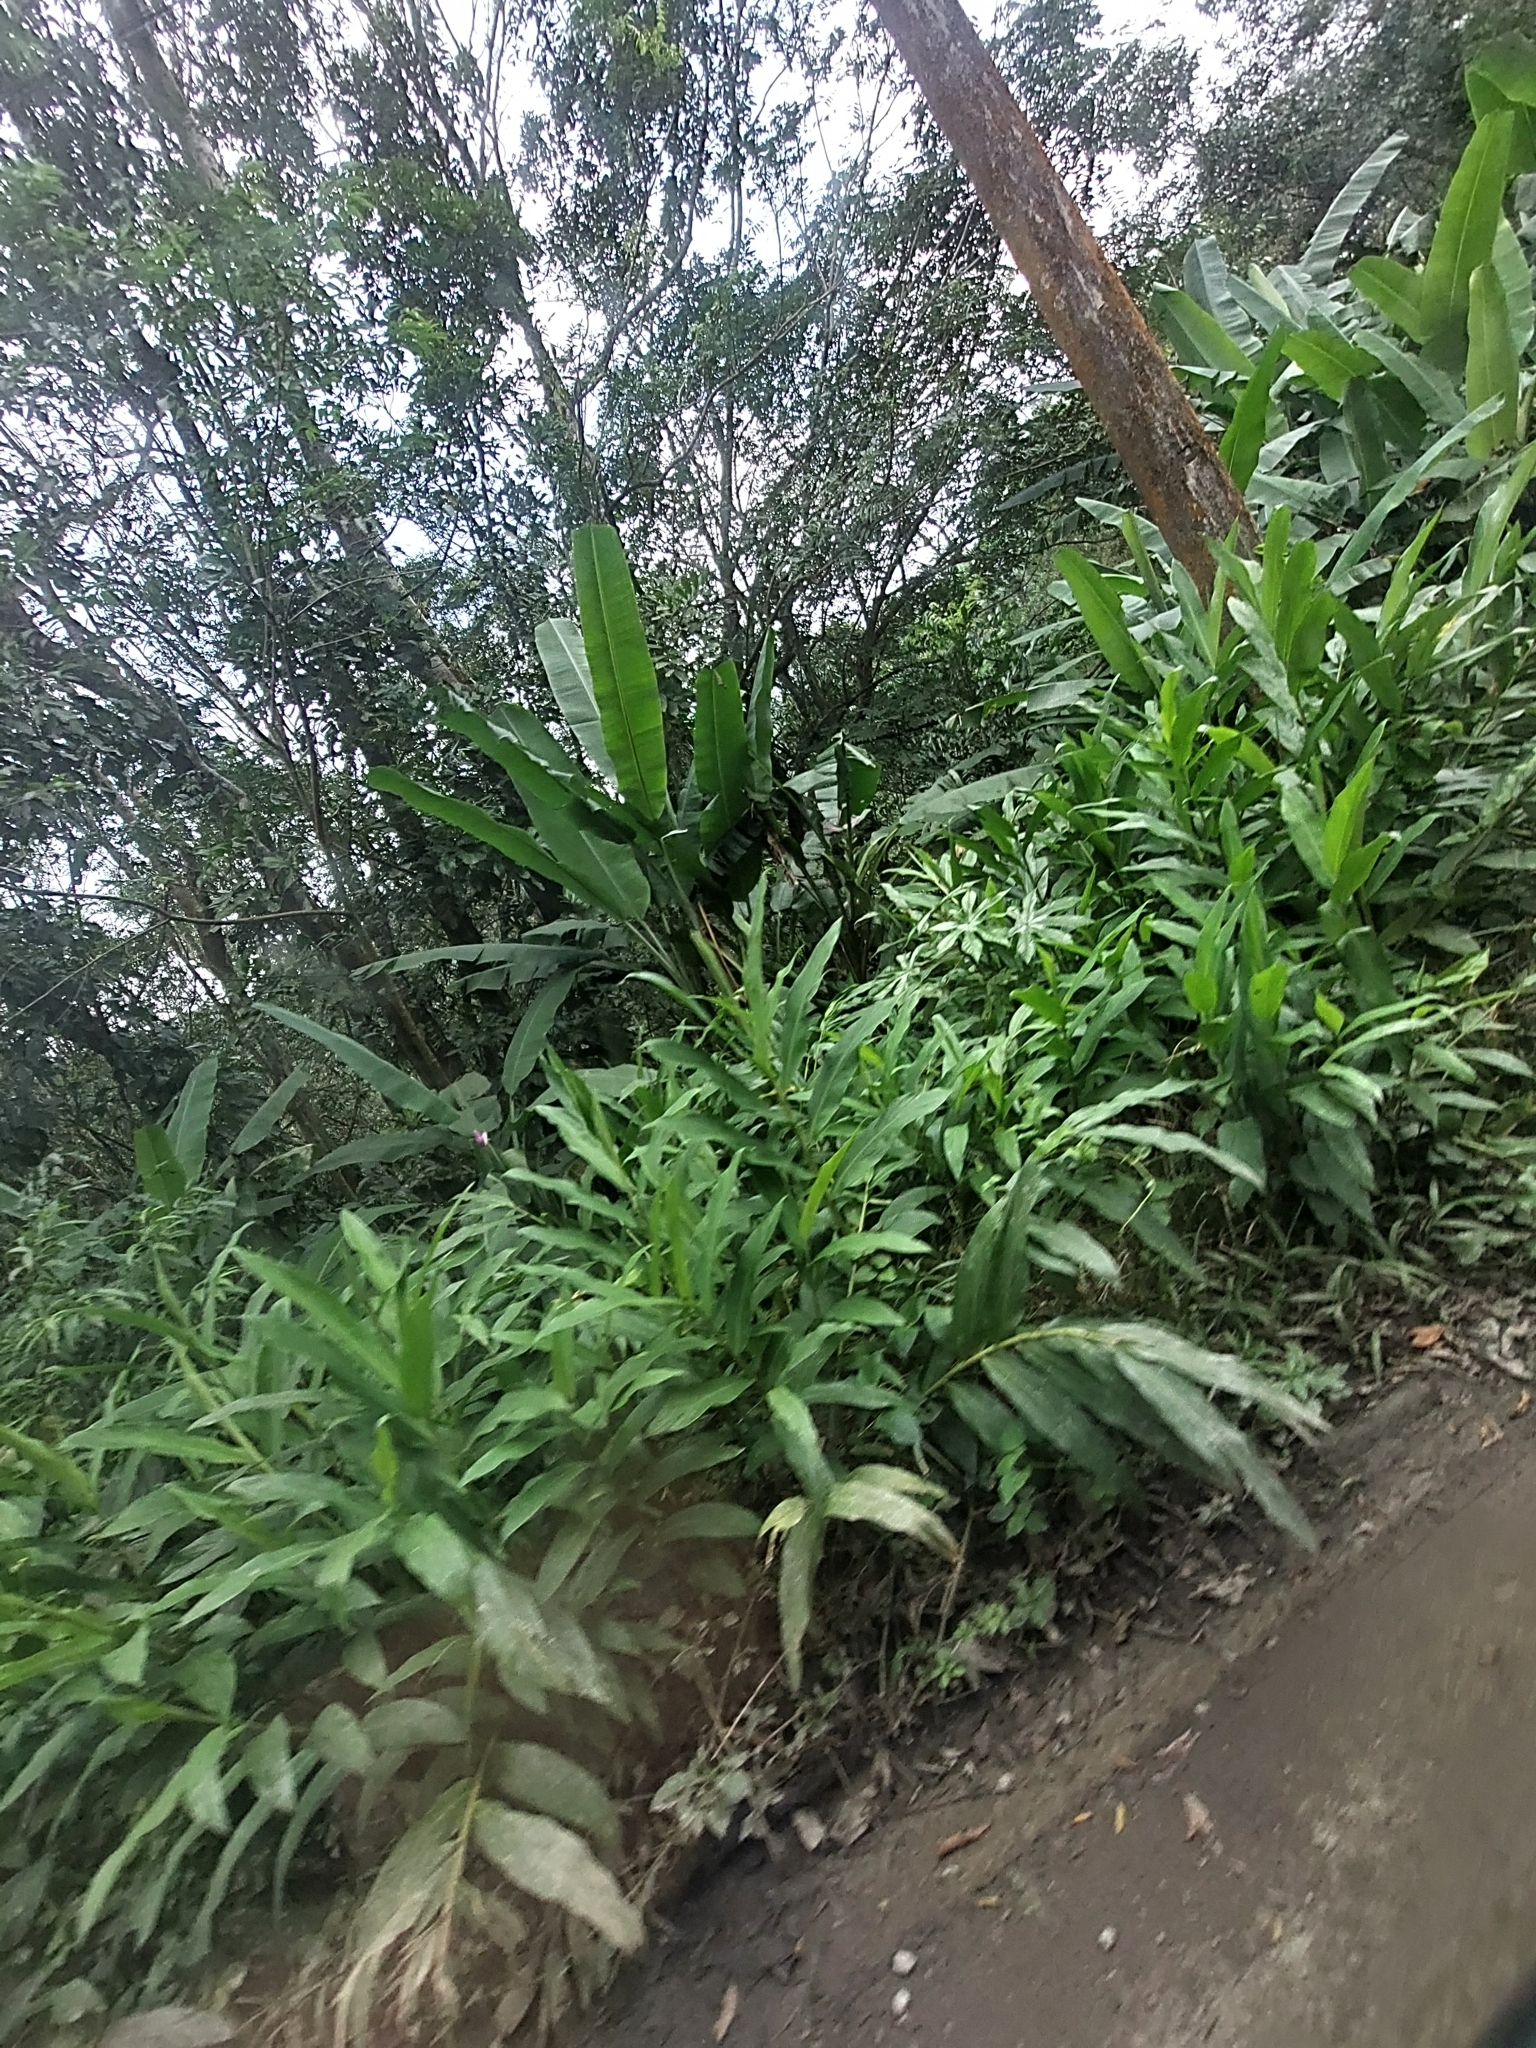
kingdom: Plantae
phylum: Tracheophyta
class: Liliopsida
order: Zingiberales
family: Zingiberaceae
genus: Hedychium
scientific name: Hedychium coronarium
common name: White garland-lily
